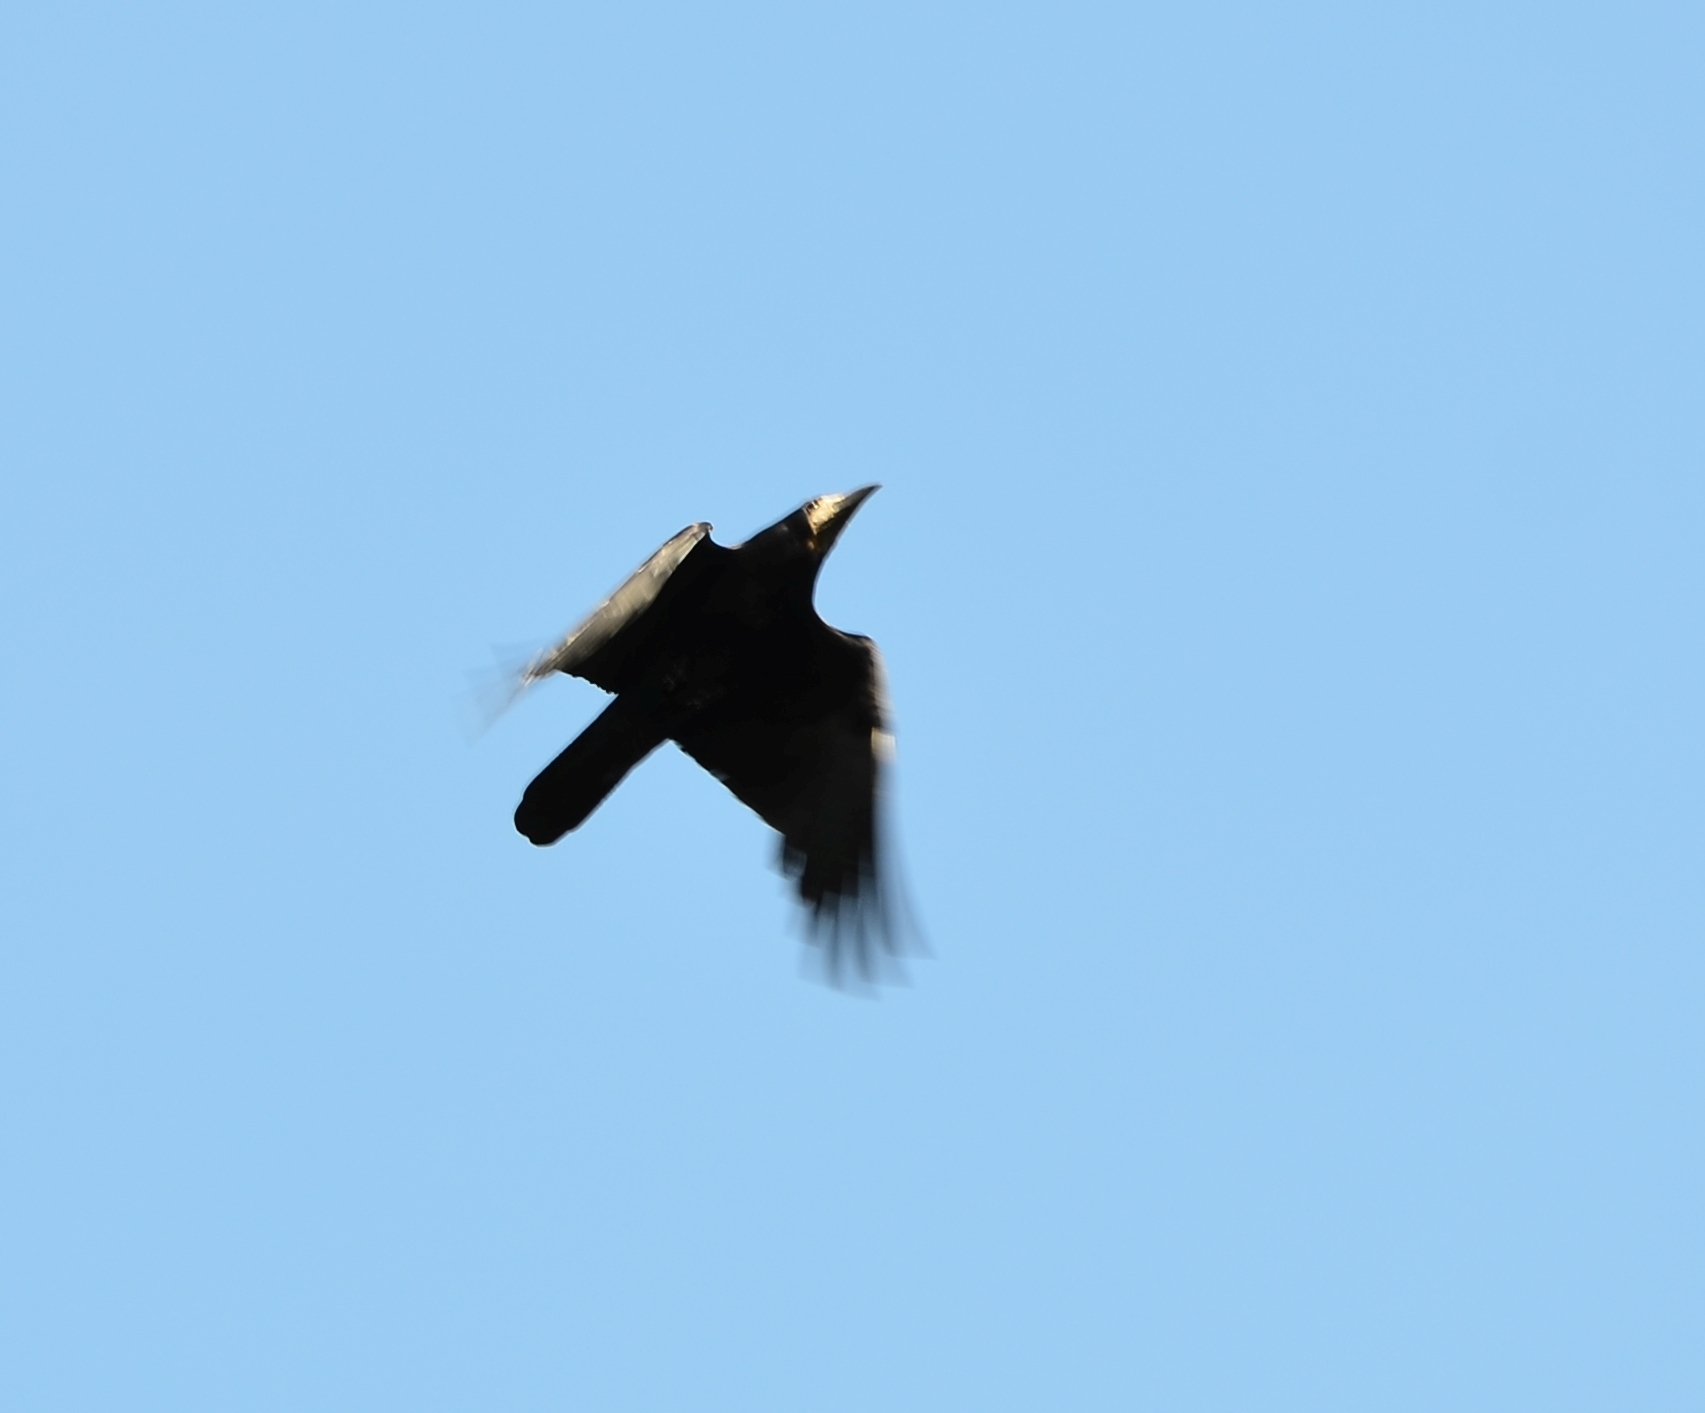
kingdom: Animalia
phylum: Chordata
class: Aves
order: Passeriformes
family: Corvidae
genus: Corvus
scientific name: Corvus frugilegus
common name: Rook
